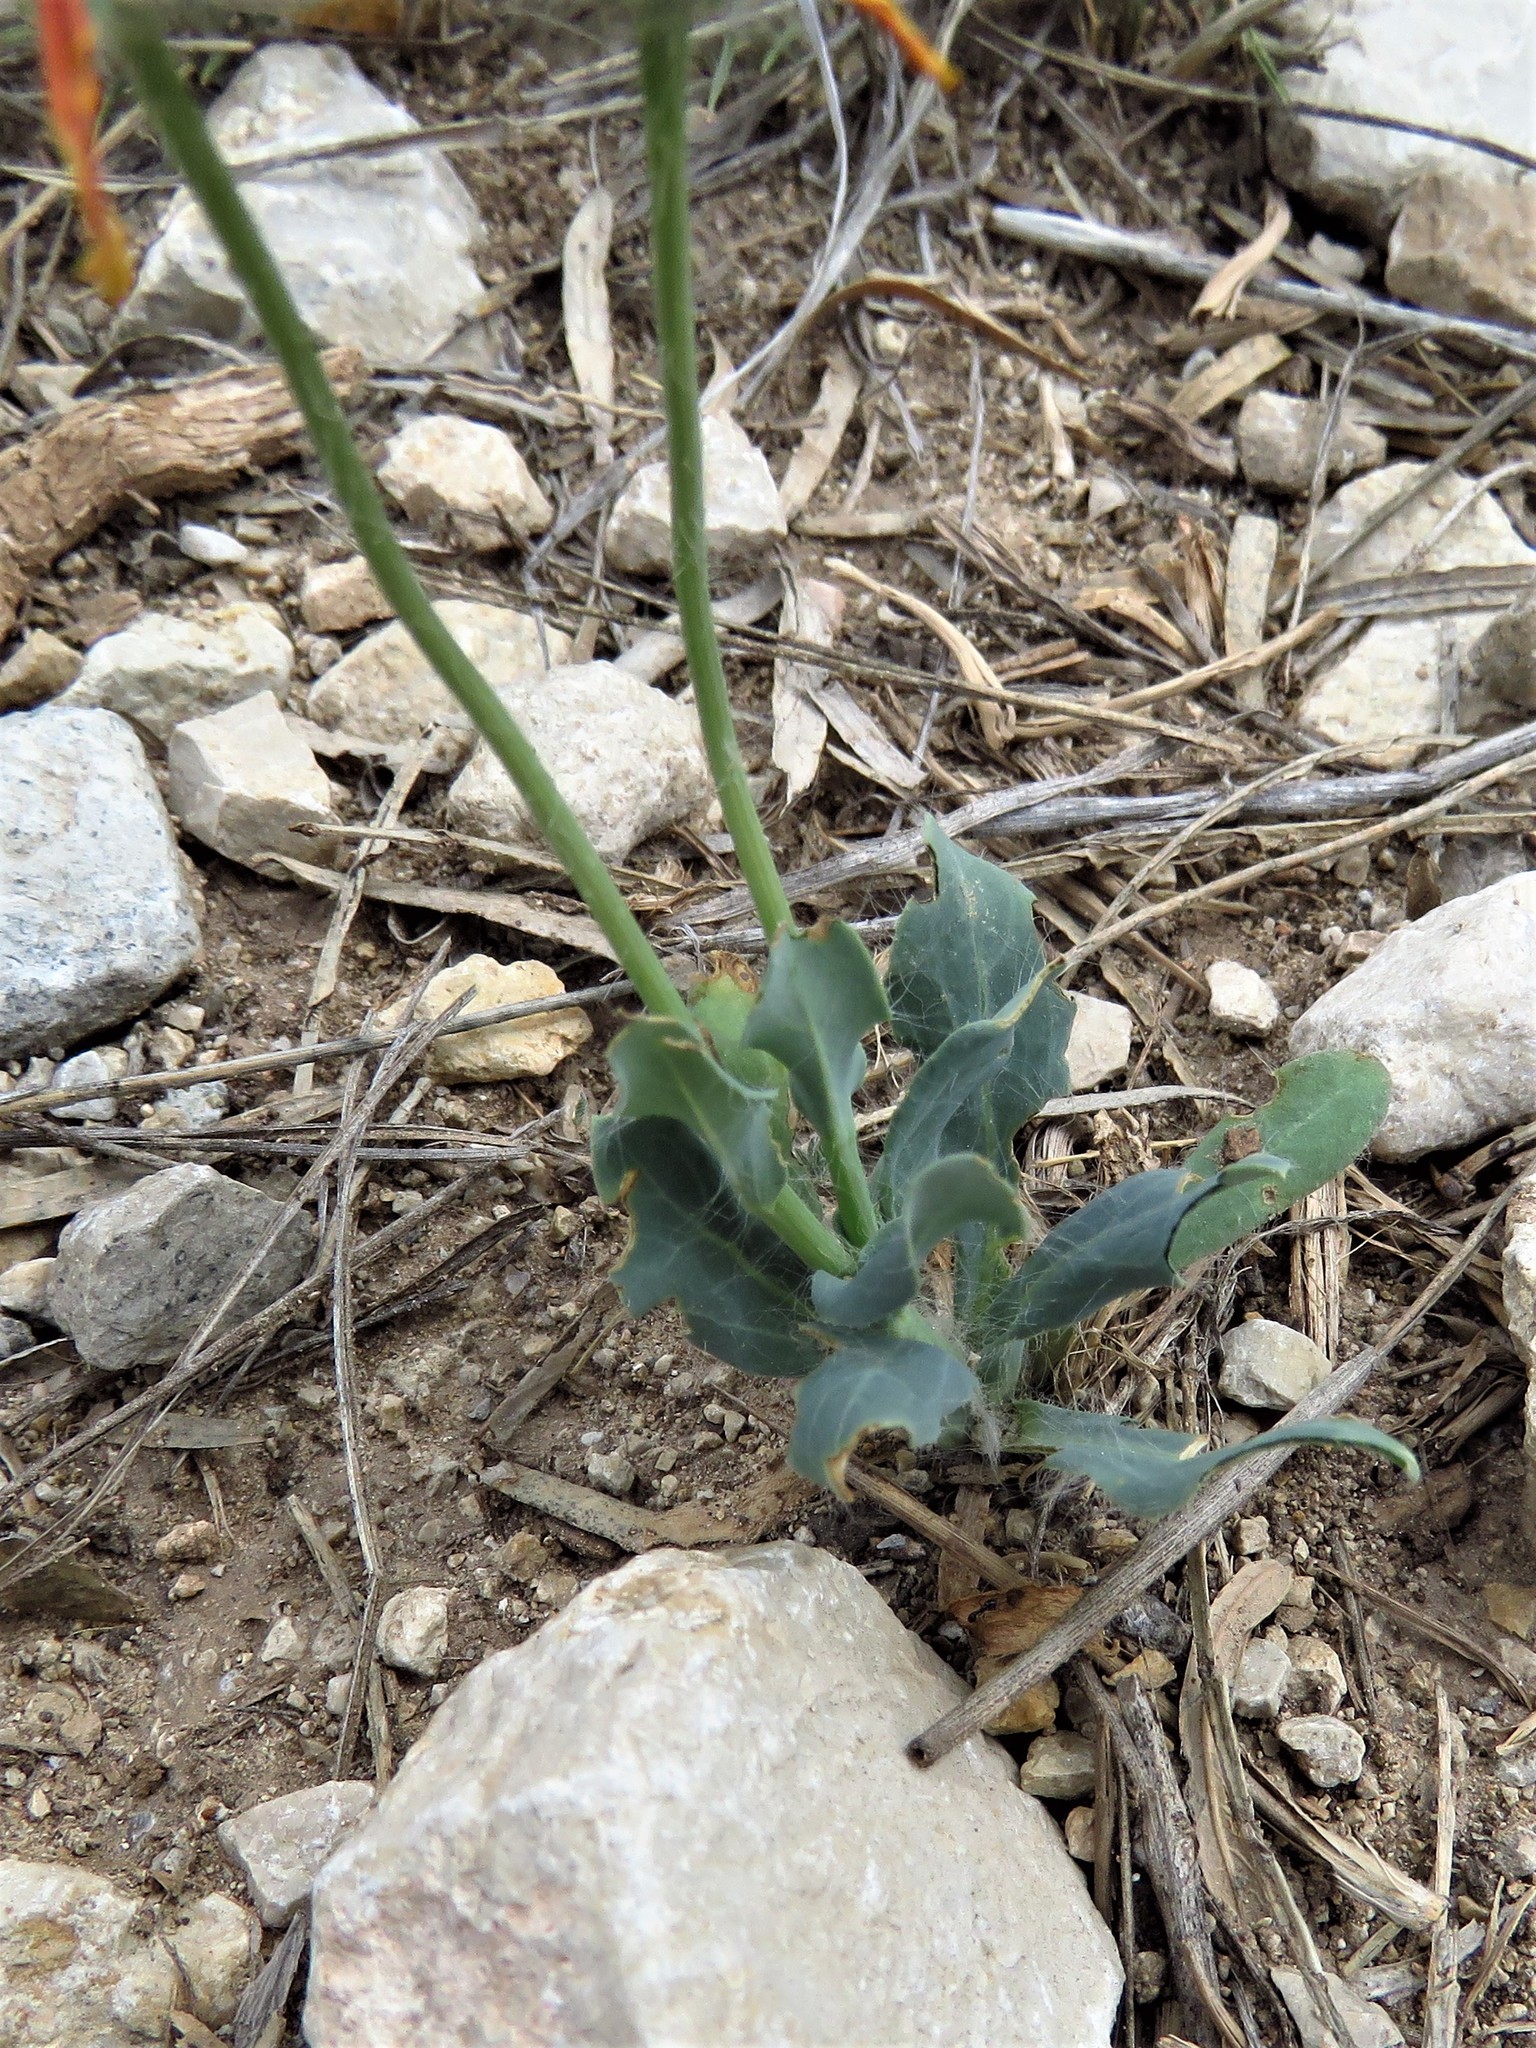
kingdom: Plantae
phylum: Tracheophyta
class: Magnoliopsida
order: Asterales
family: Asteraceae
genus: Amblyolepis
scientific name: Amblyolepis setigera
